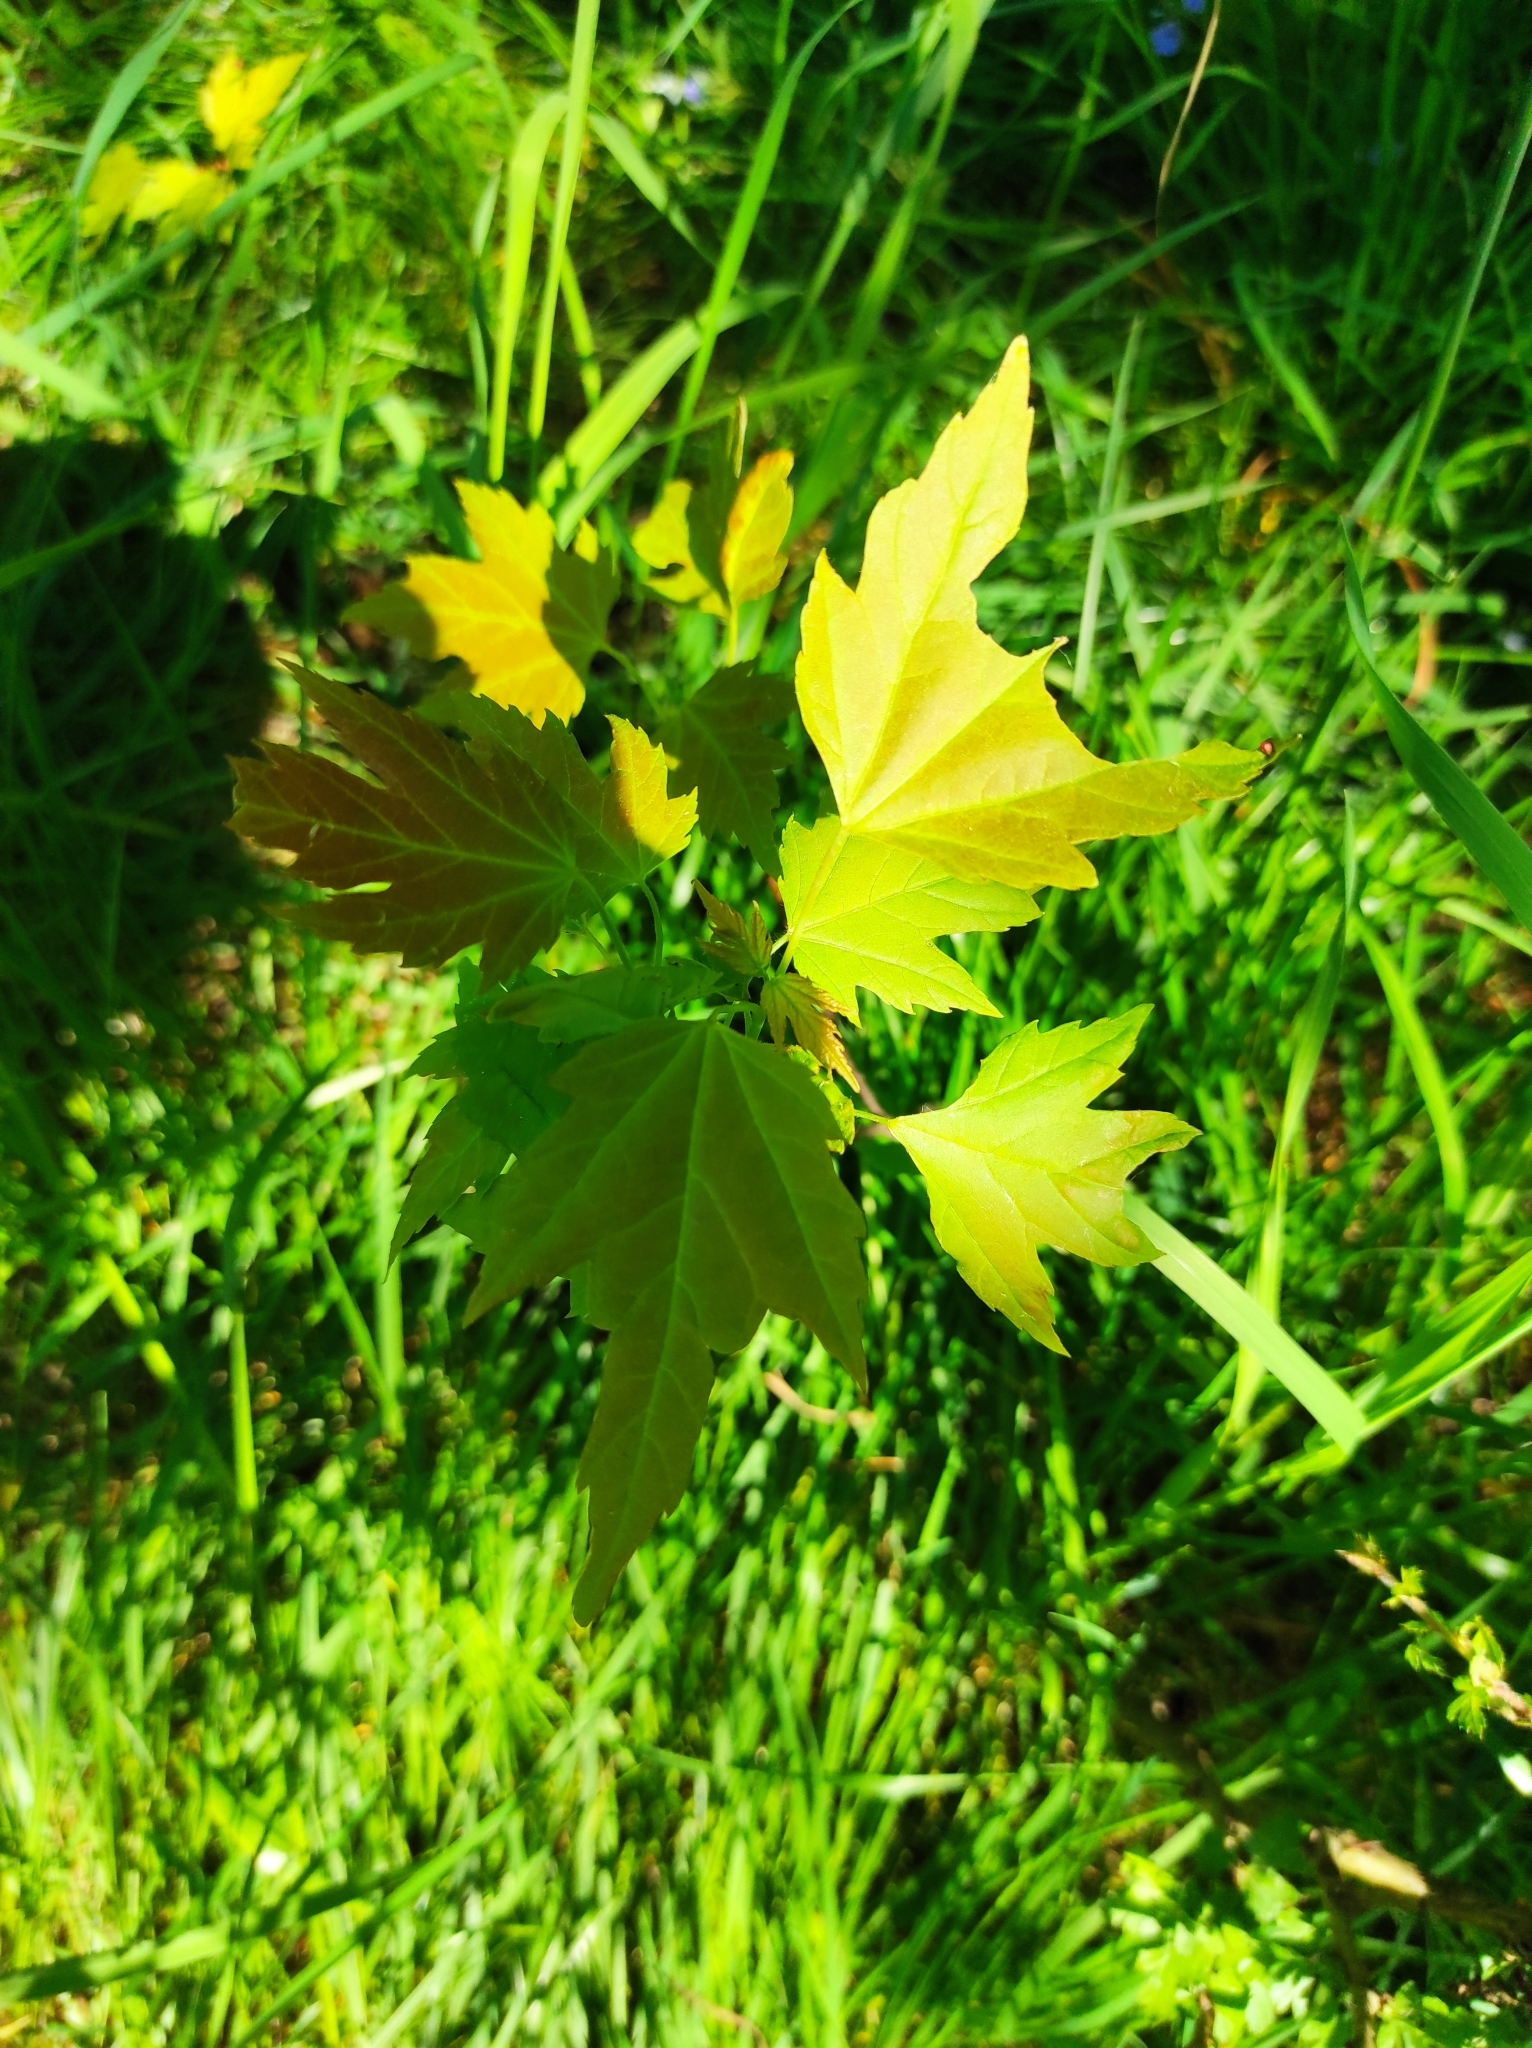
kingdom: Plantae
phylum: Tracheophyta
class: Magnoliopsida
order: Sapindales
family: Sapindaceae
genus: Acer
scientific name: Acer saccharinum
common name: Silver maple
